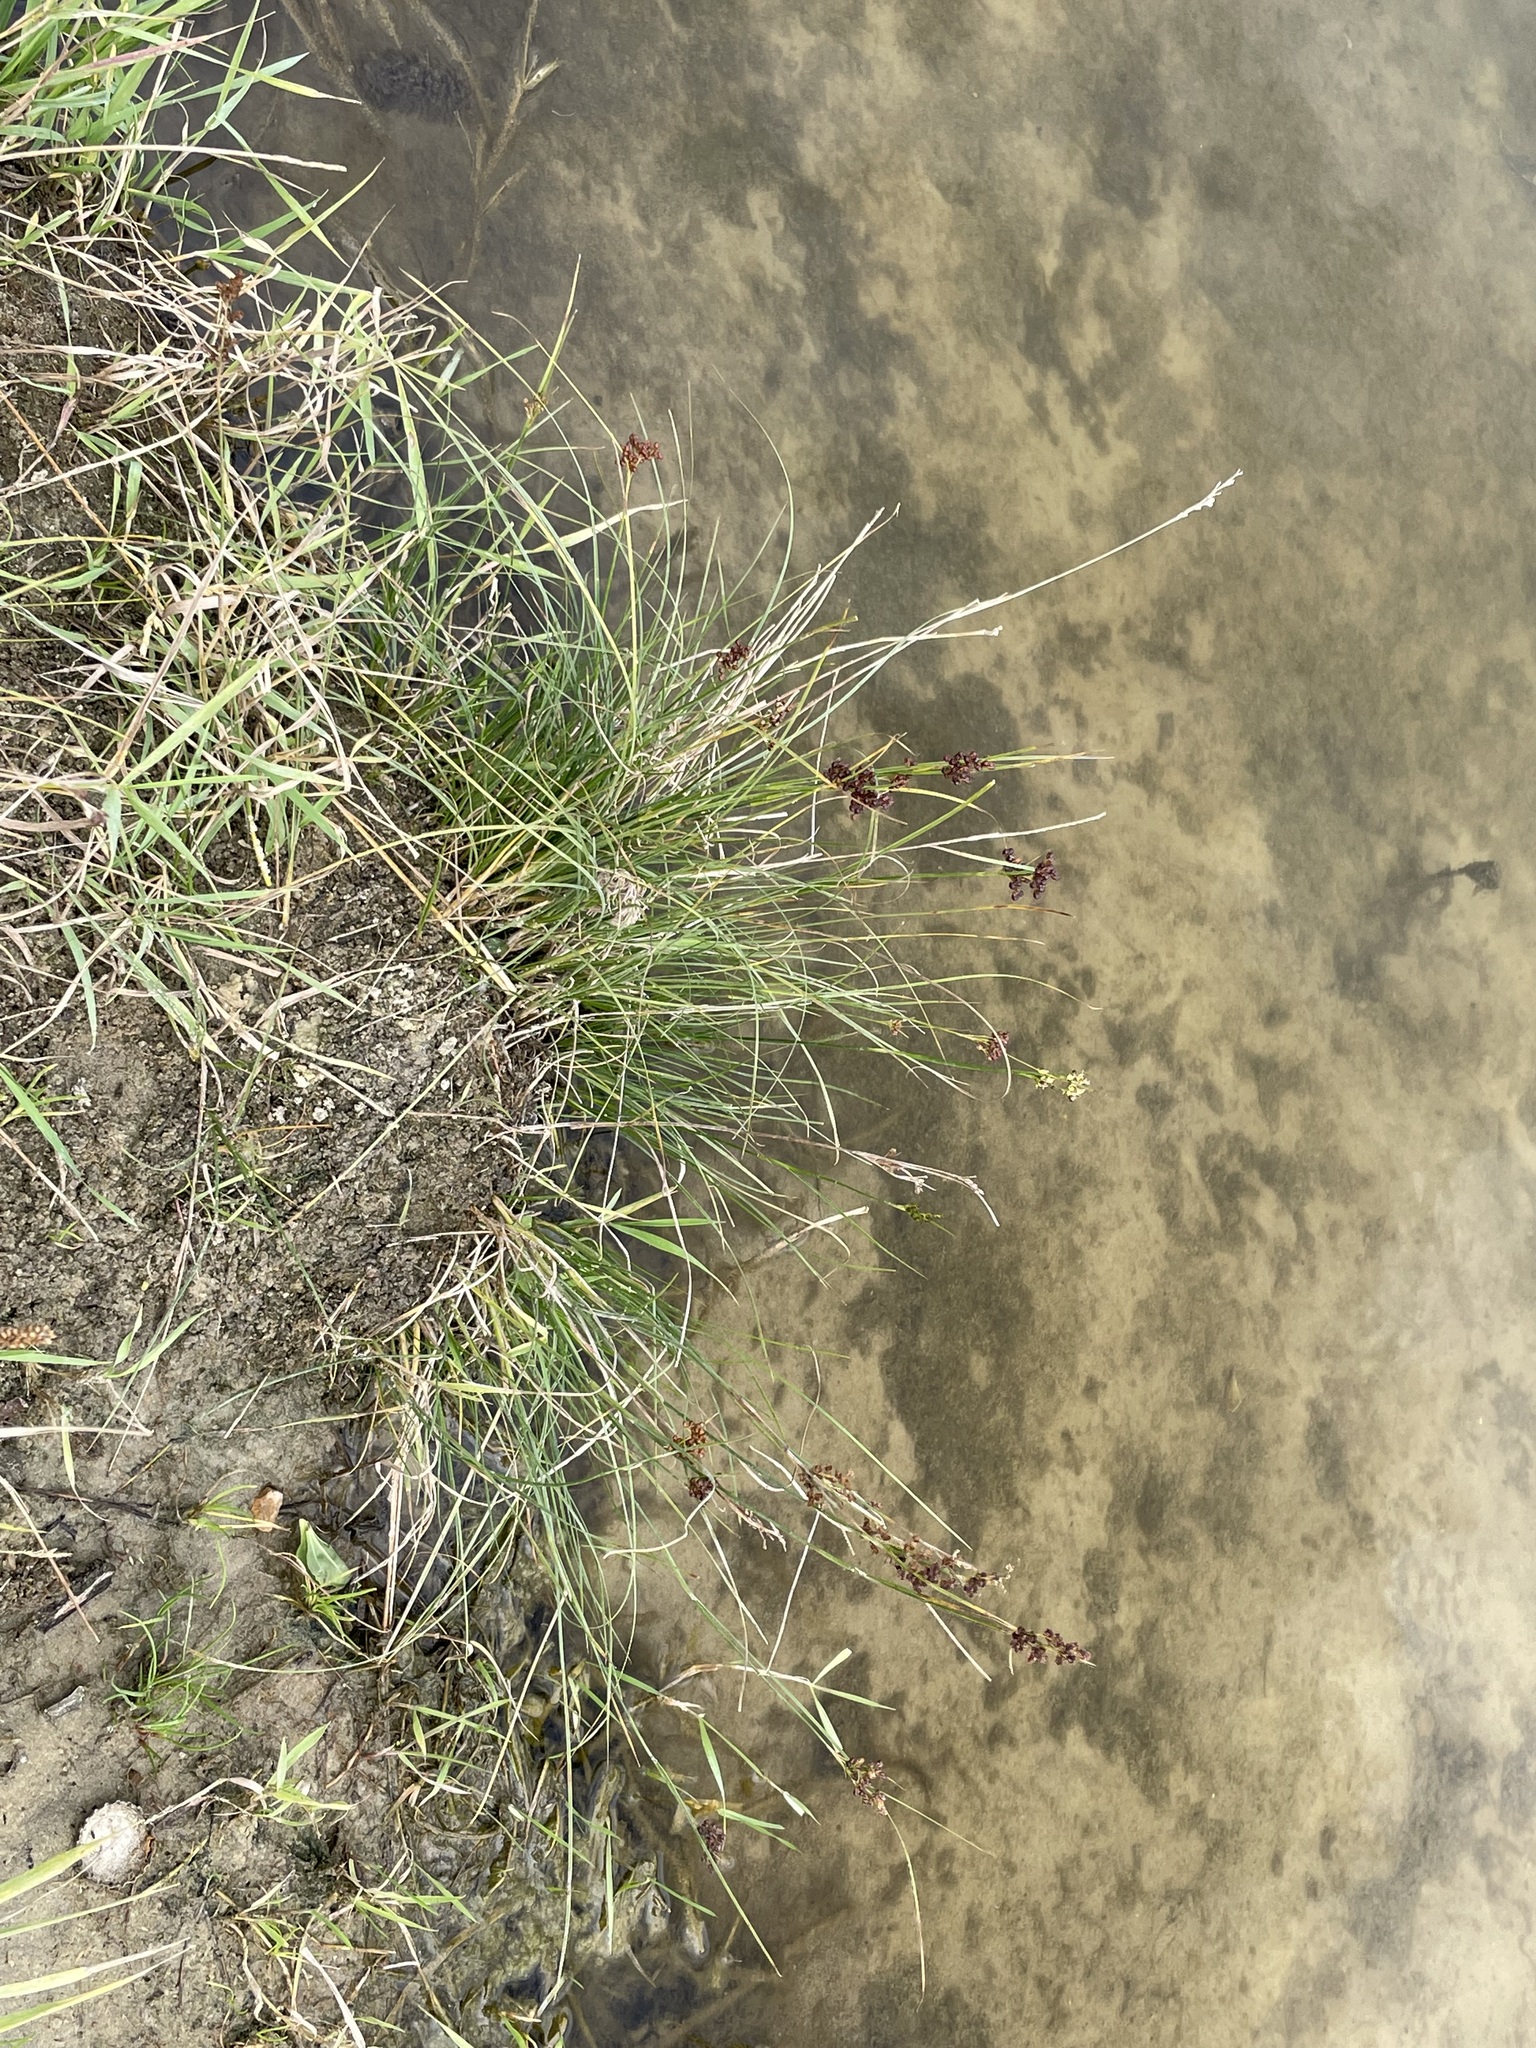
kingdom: Plantae
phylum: Tracheophyta
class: Liliopsida
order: Poales
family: Juncaceae
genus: Juncus
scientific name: Juncus compressus
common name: Round-fruited rush
